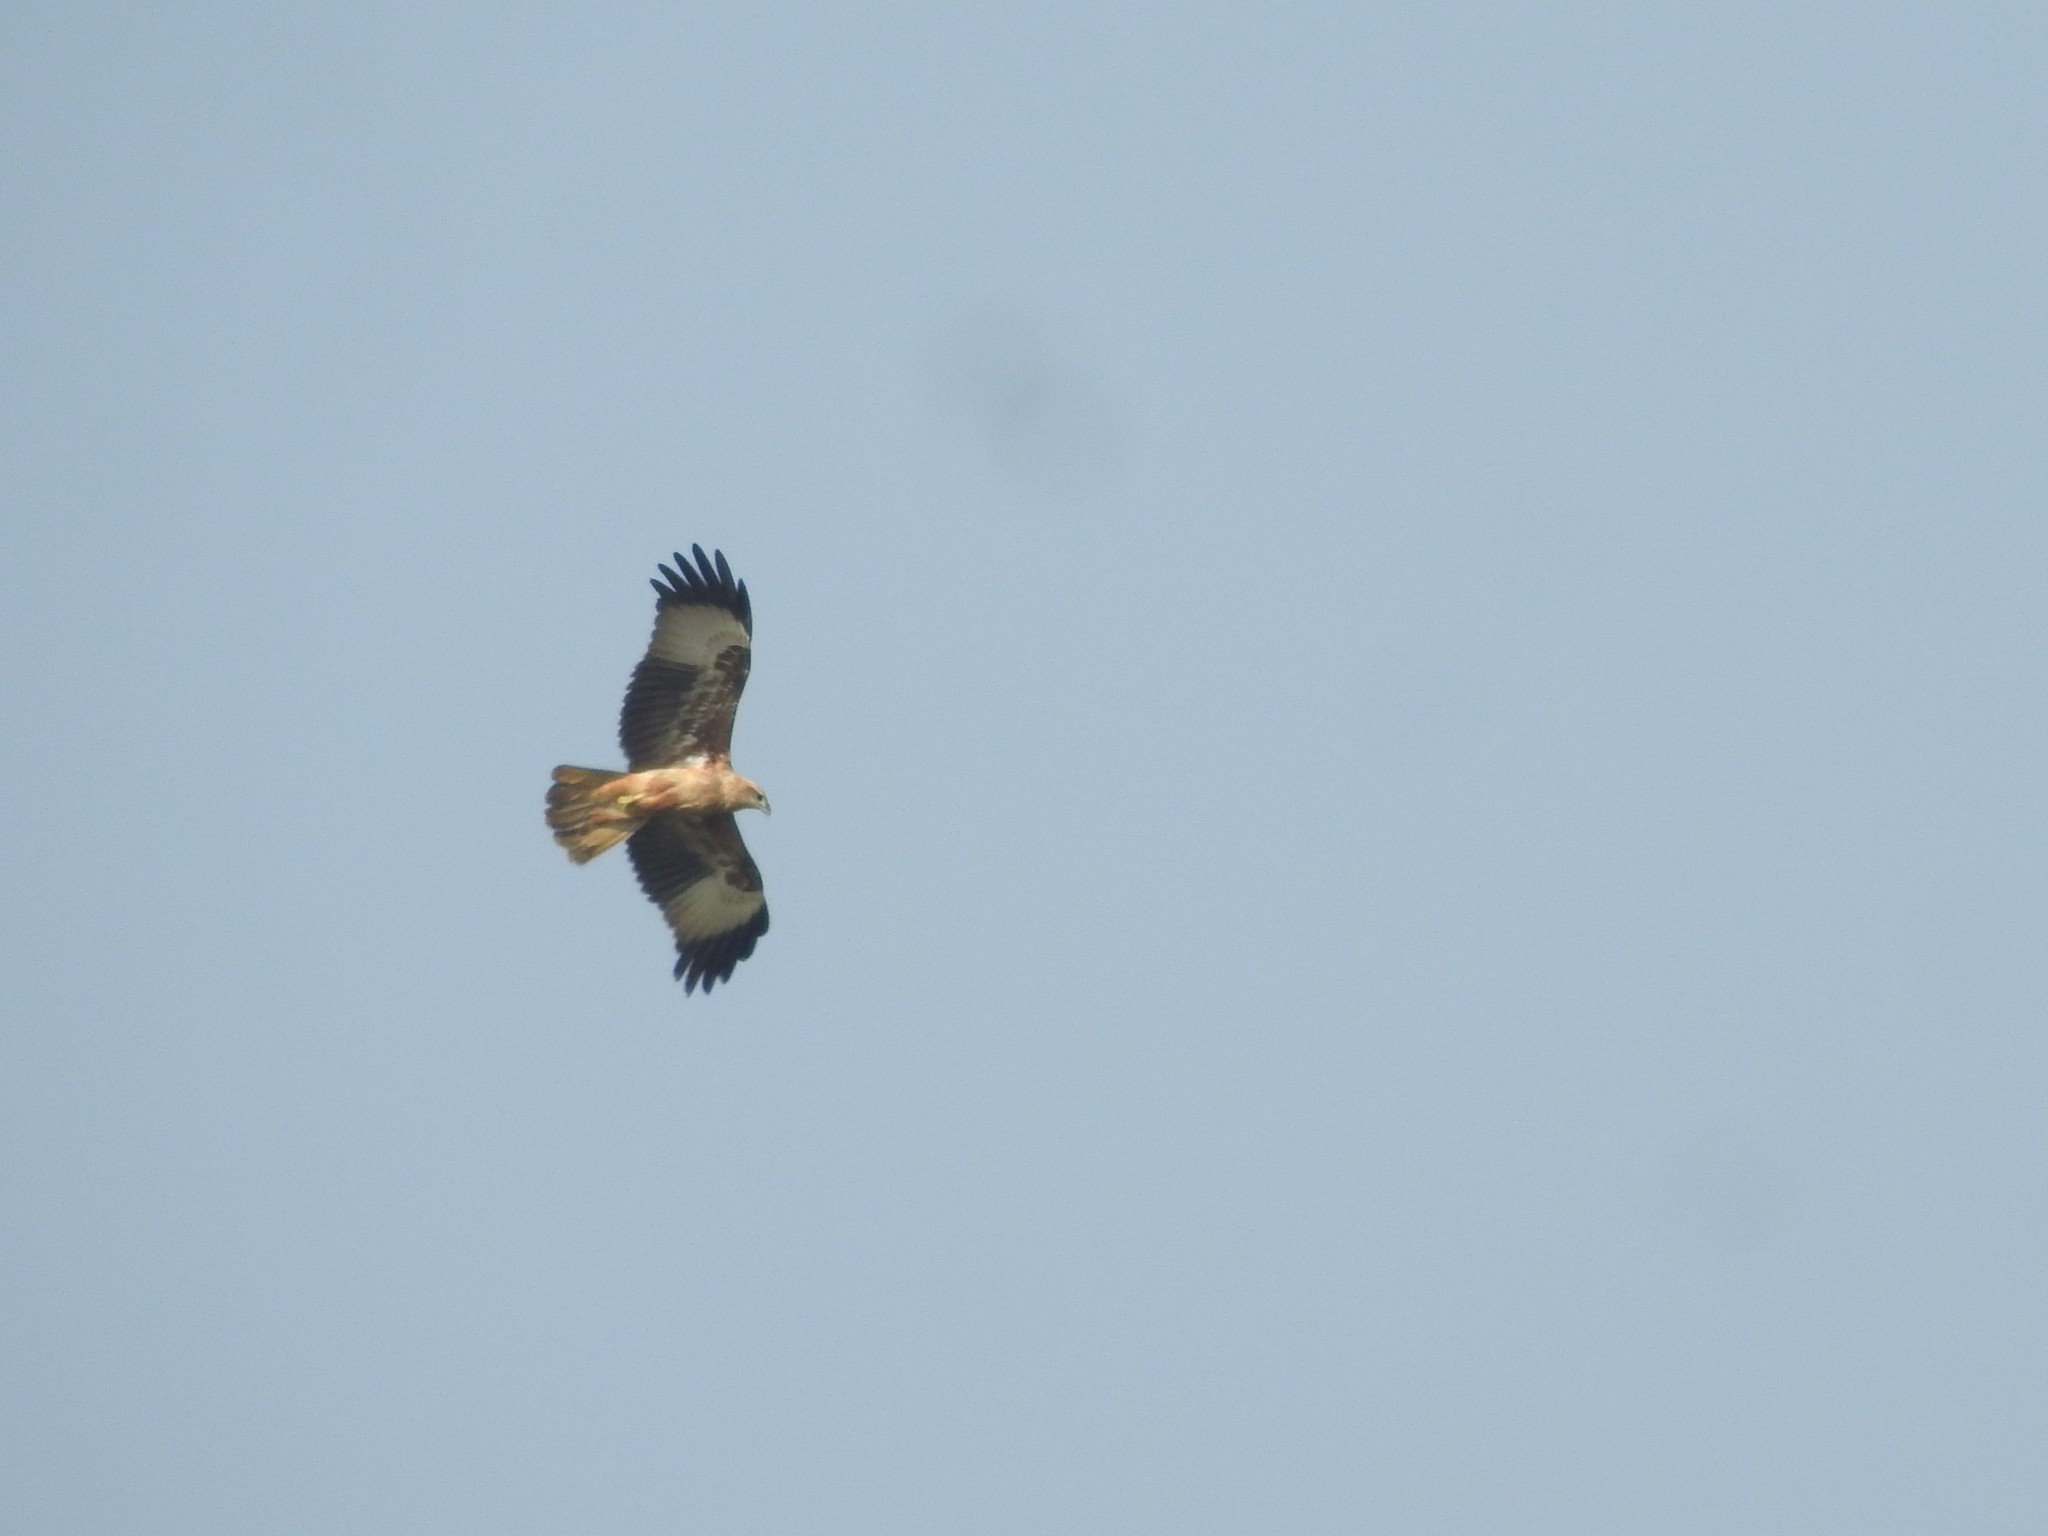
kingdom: Animalia
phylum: Chordata
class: Aves
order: Accipitriformes
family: Accipitridae
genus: Haliastur
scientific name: Haliastur indus
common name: Brahminy kite
